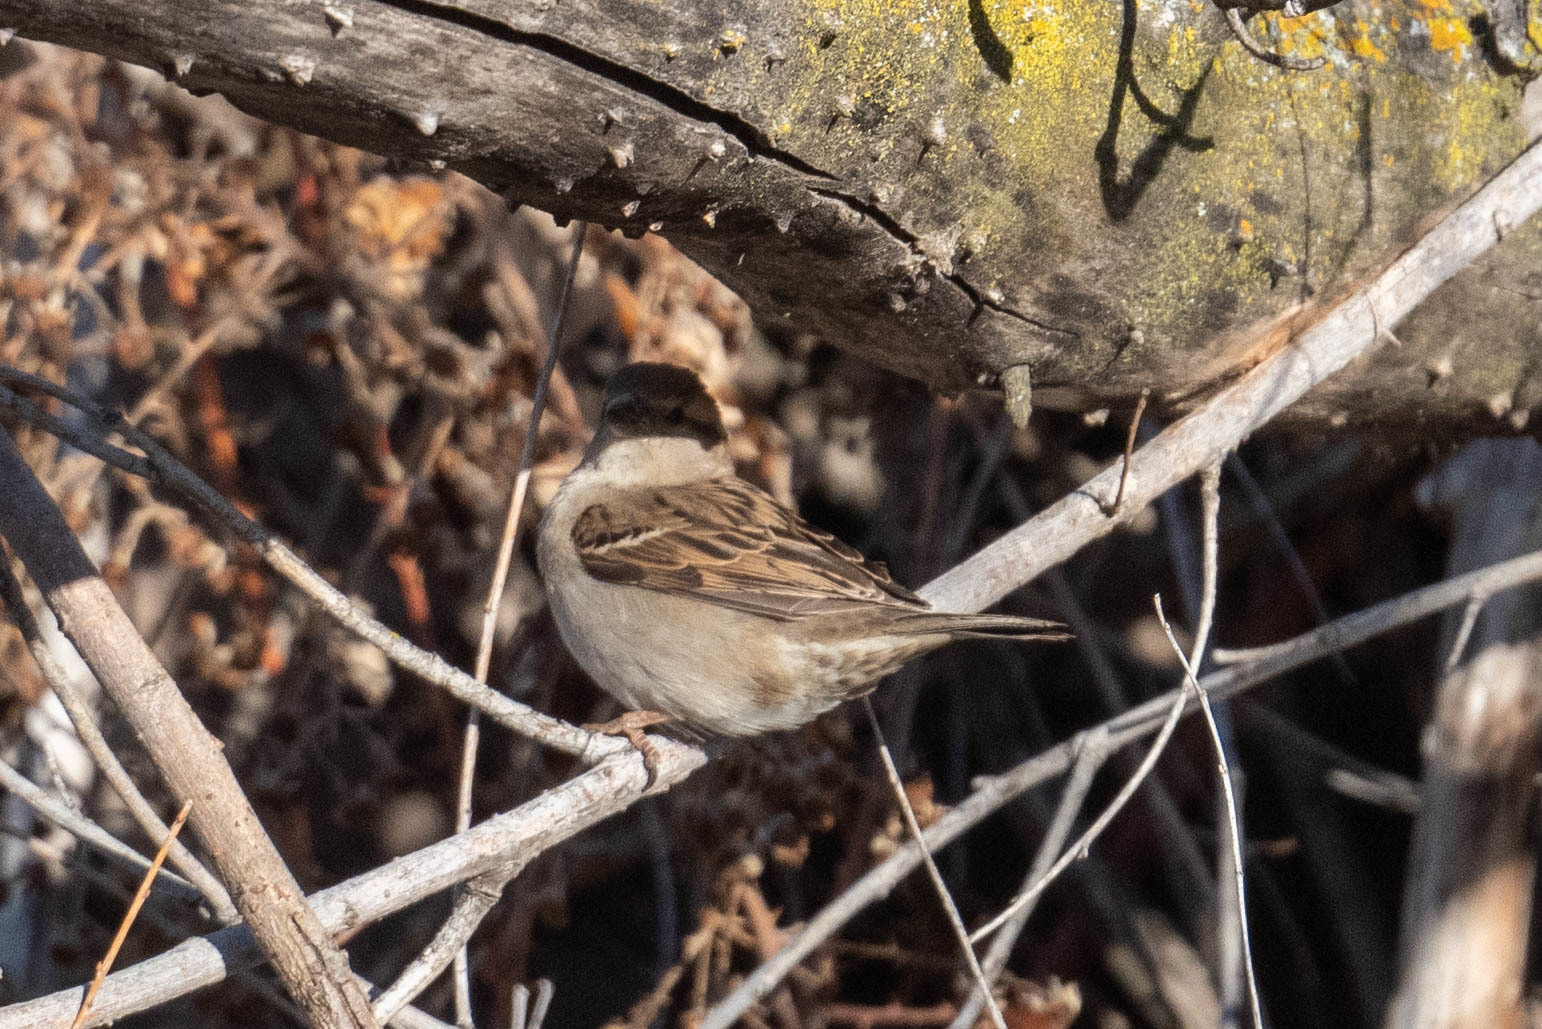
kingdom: Animalia
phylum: Chordata
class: Aves
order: Passeriformes
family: Passeridae
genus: Passer
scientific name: Passer domesticus
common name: House sparrow
